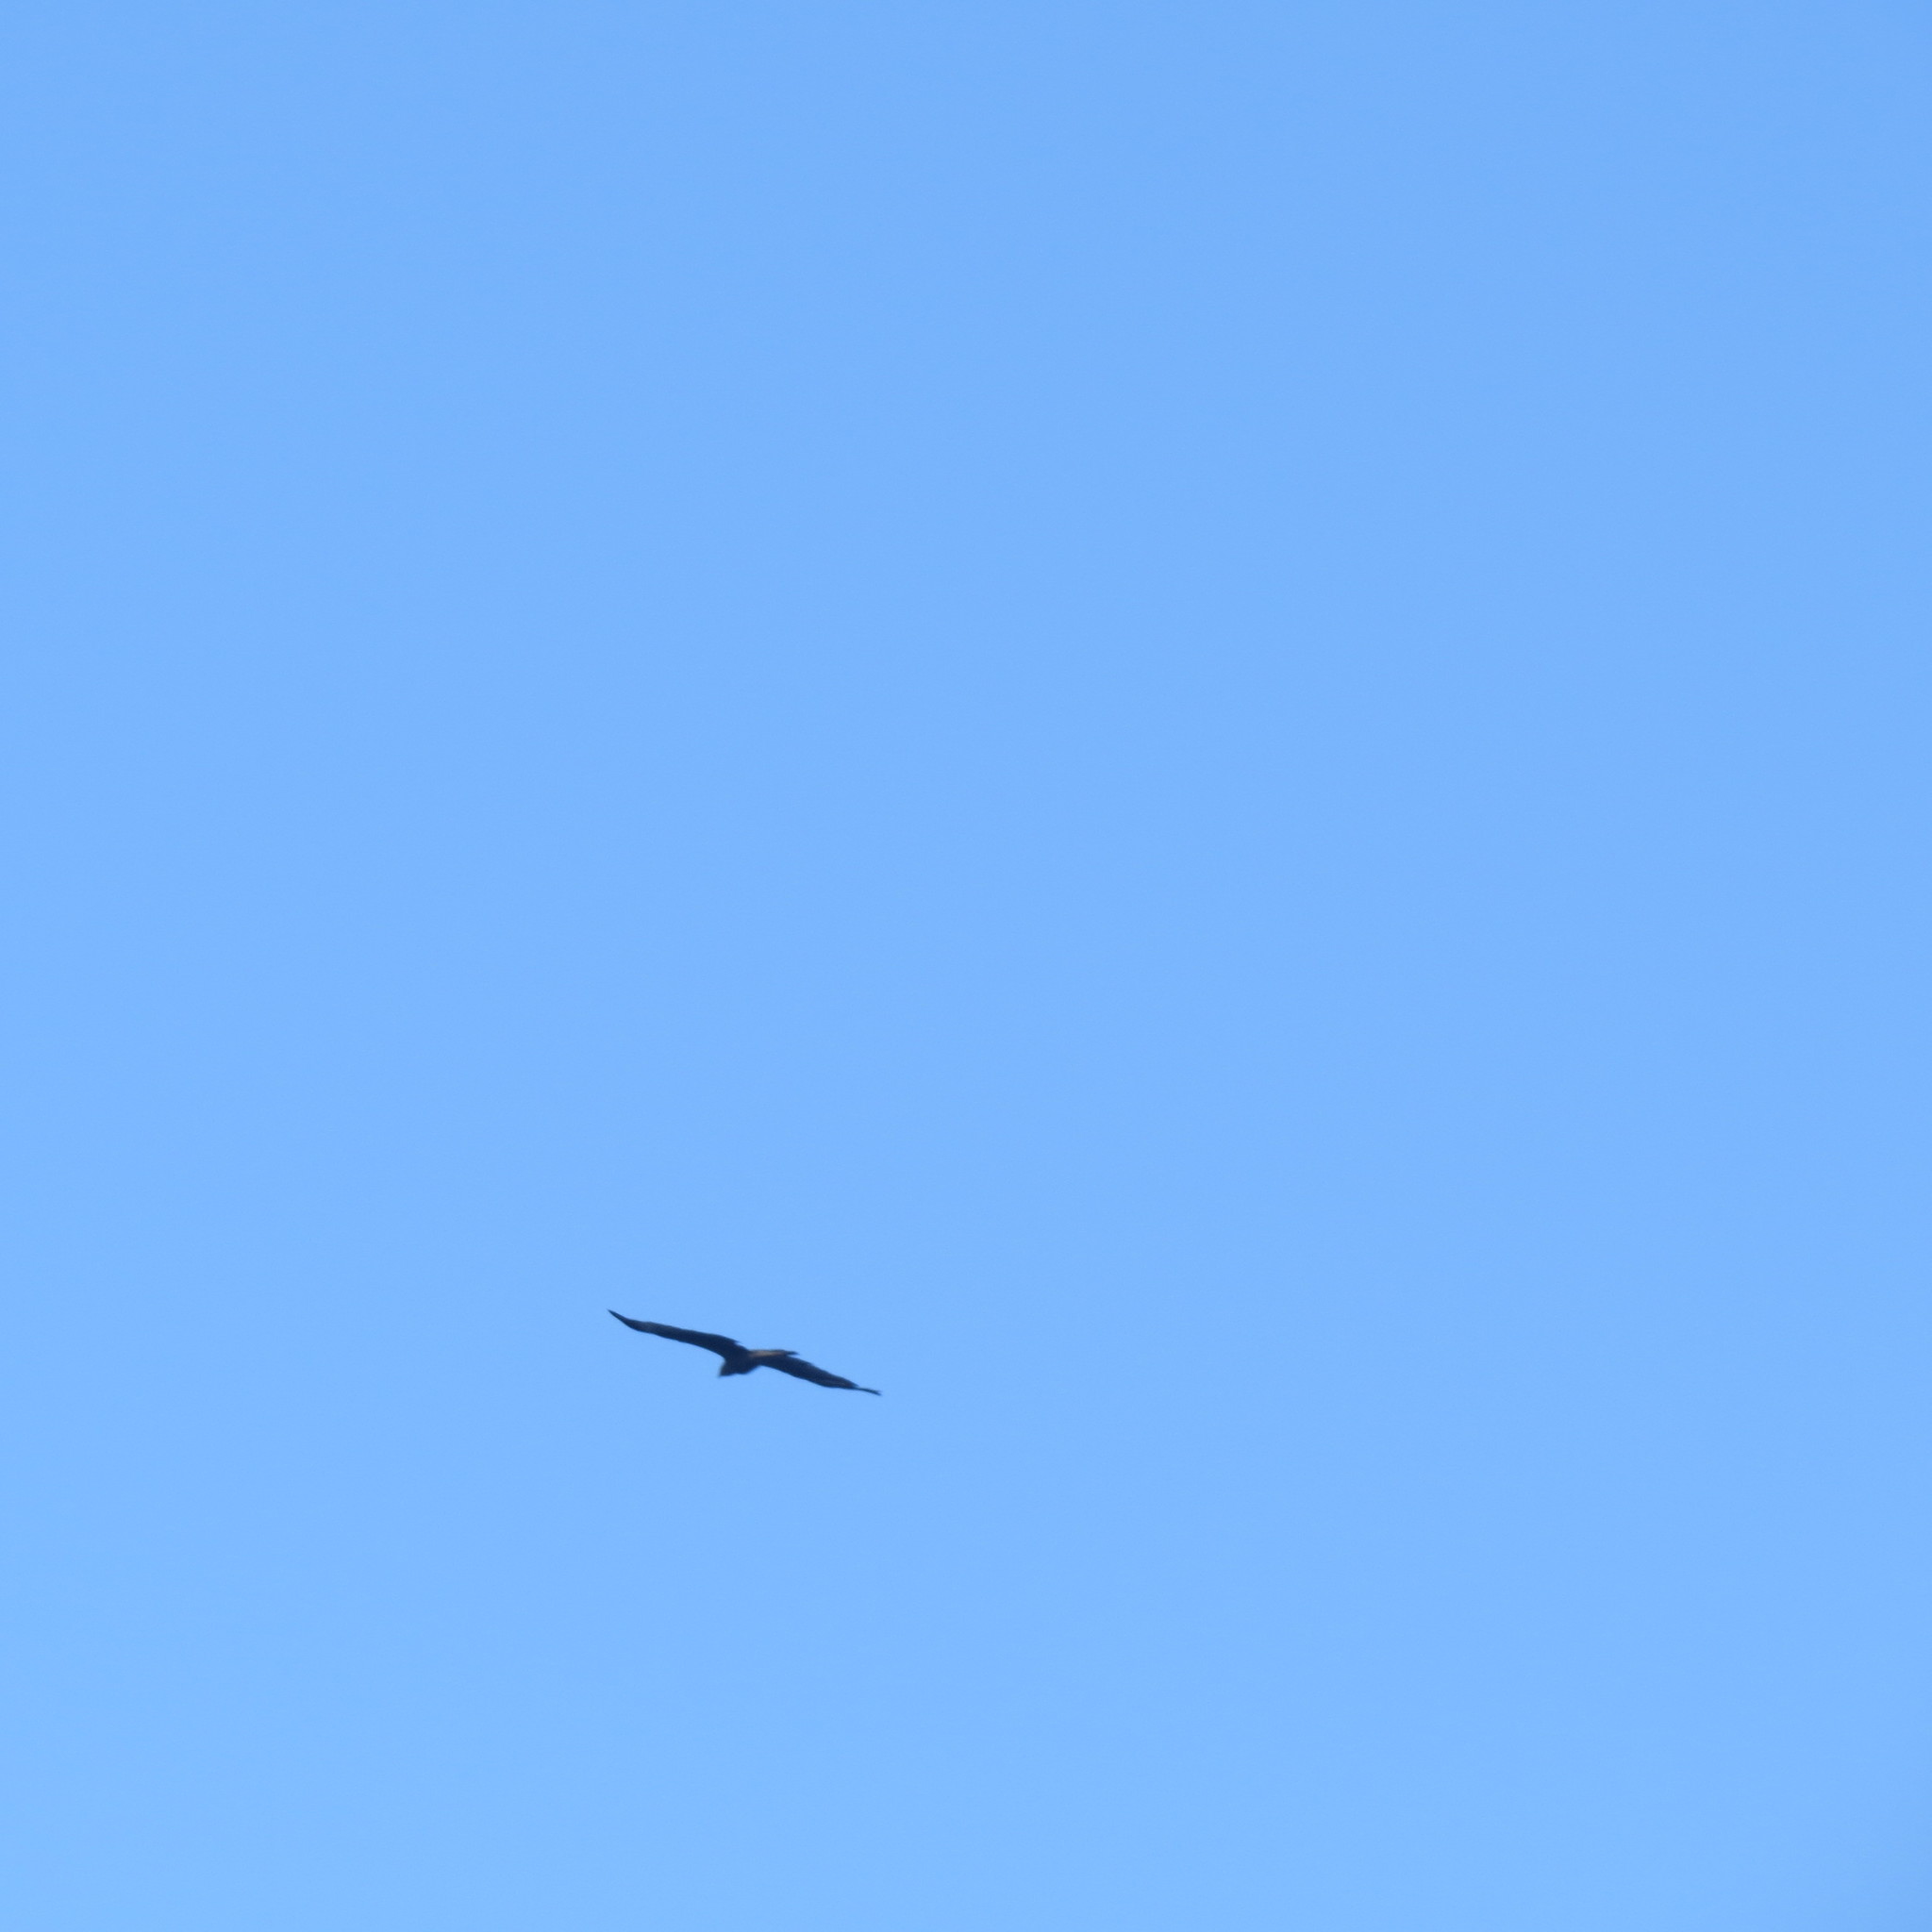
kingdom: Animalia
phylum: Chordata
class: Aves
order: Accipitriformes
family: Accipitridae
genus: Milvus
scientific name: Milvus migrans
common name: Black kite
